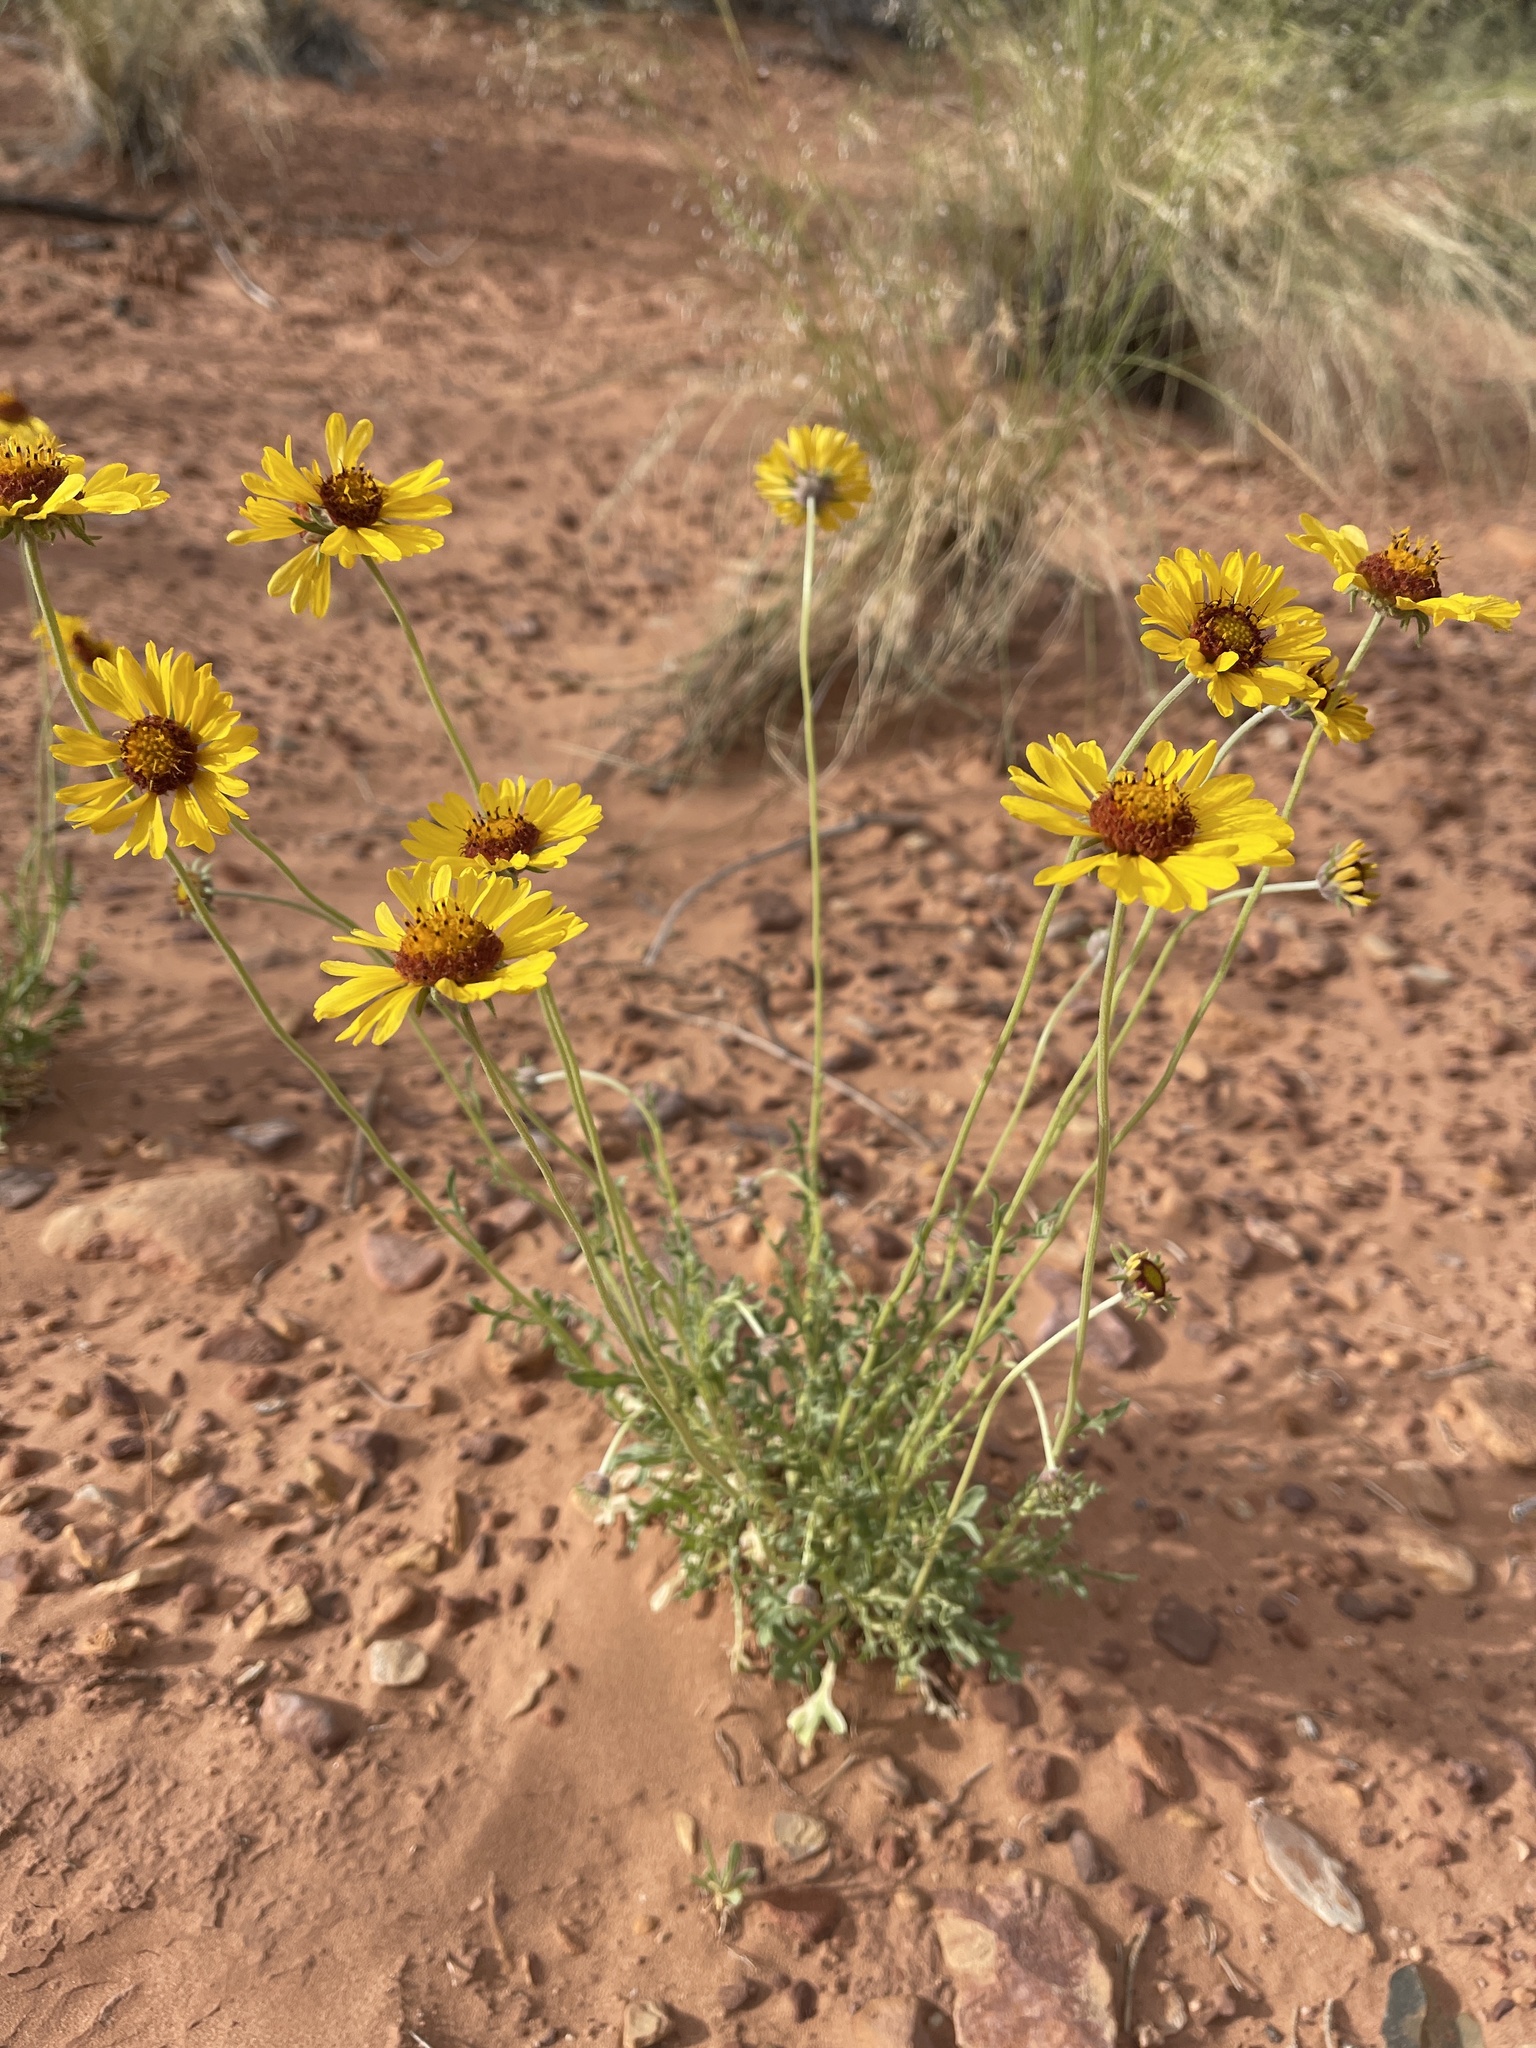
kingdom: Plantae
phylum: Tracheophyta
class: Magnoliopsida
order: Asterales
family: Asteraceae
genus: Gaillardia
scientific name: Gaillardia pinnatifida
